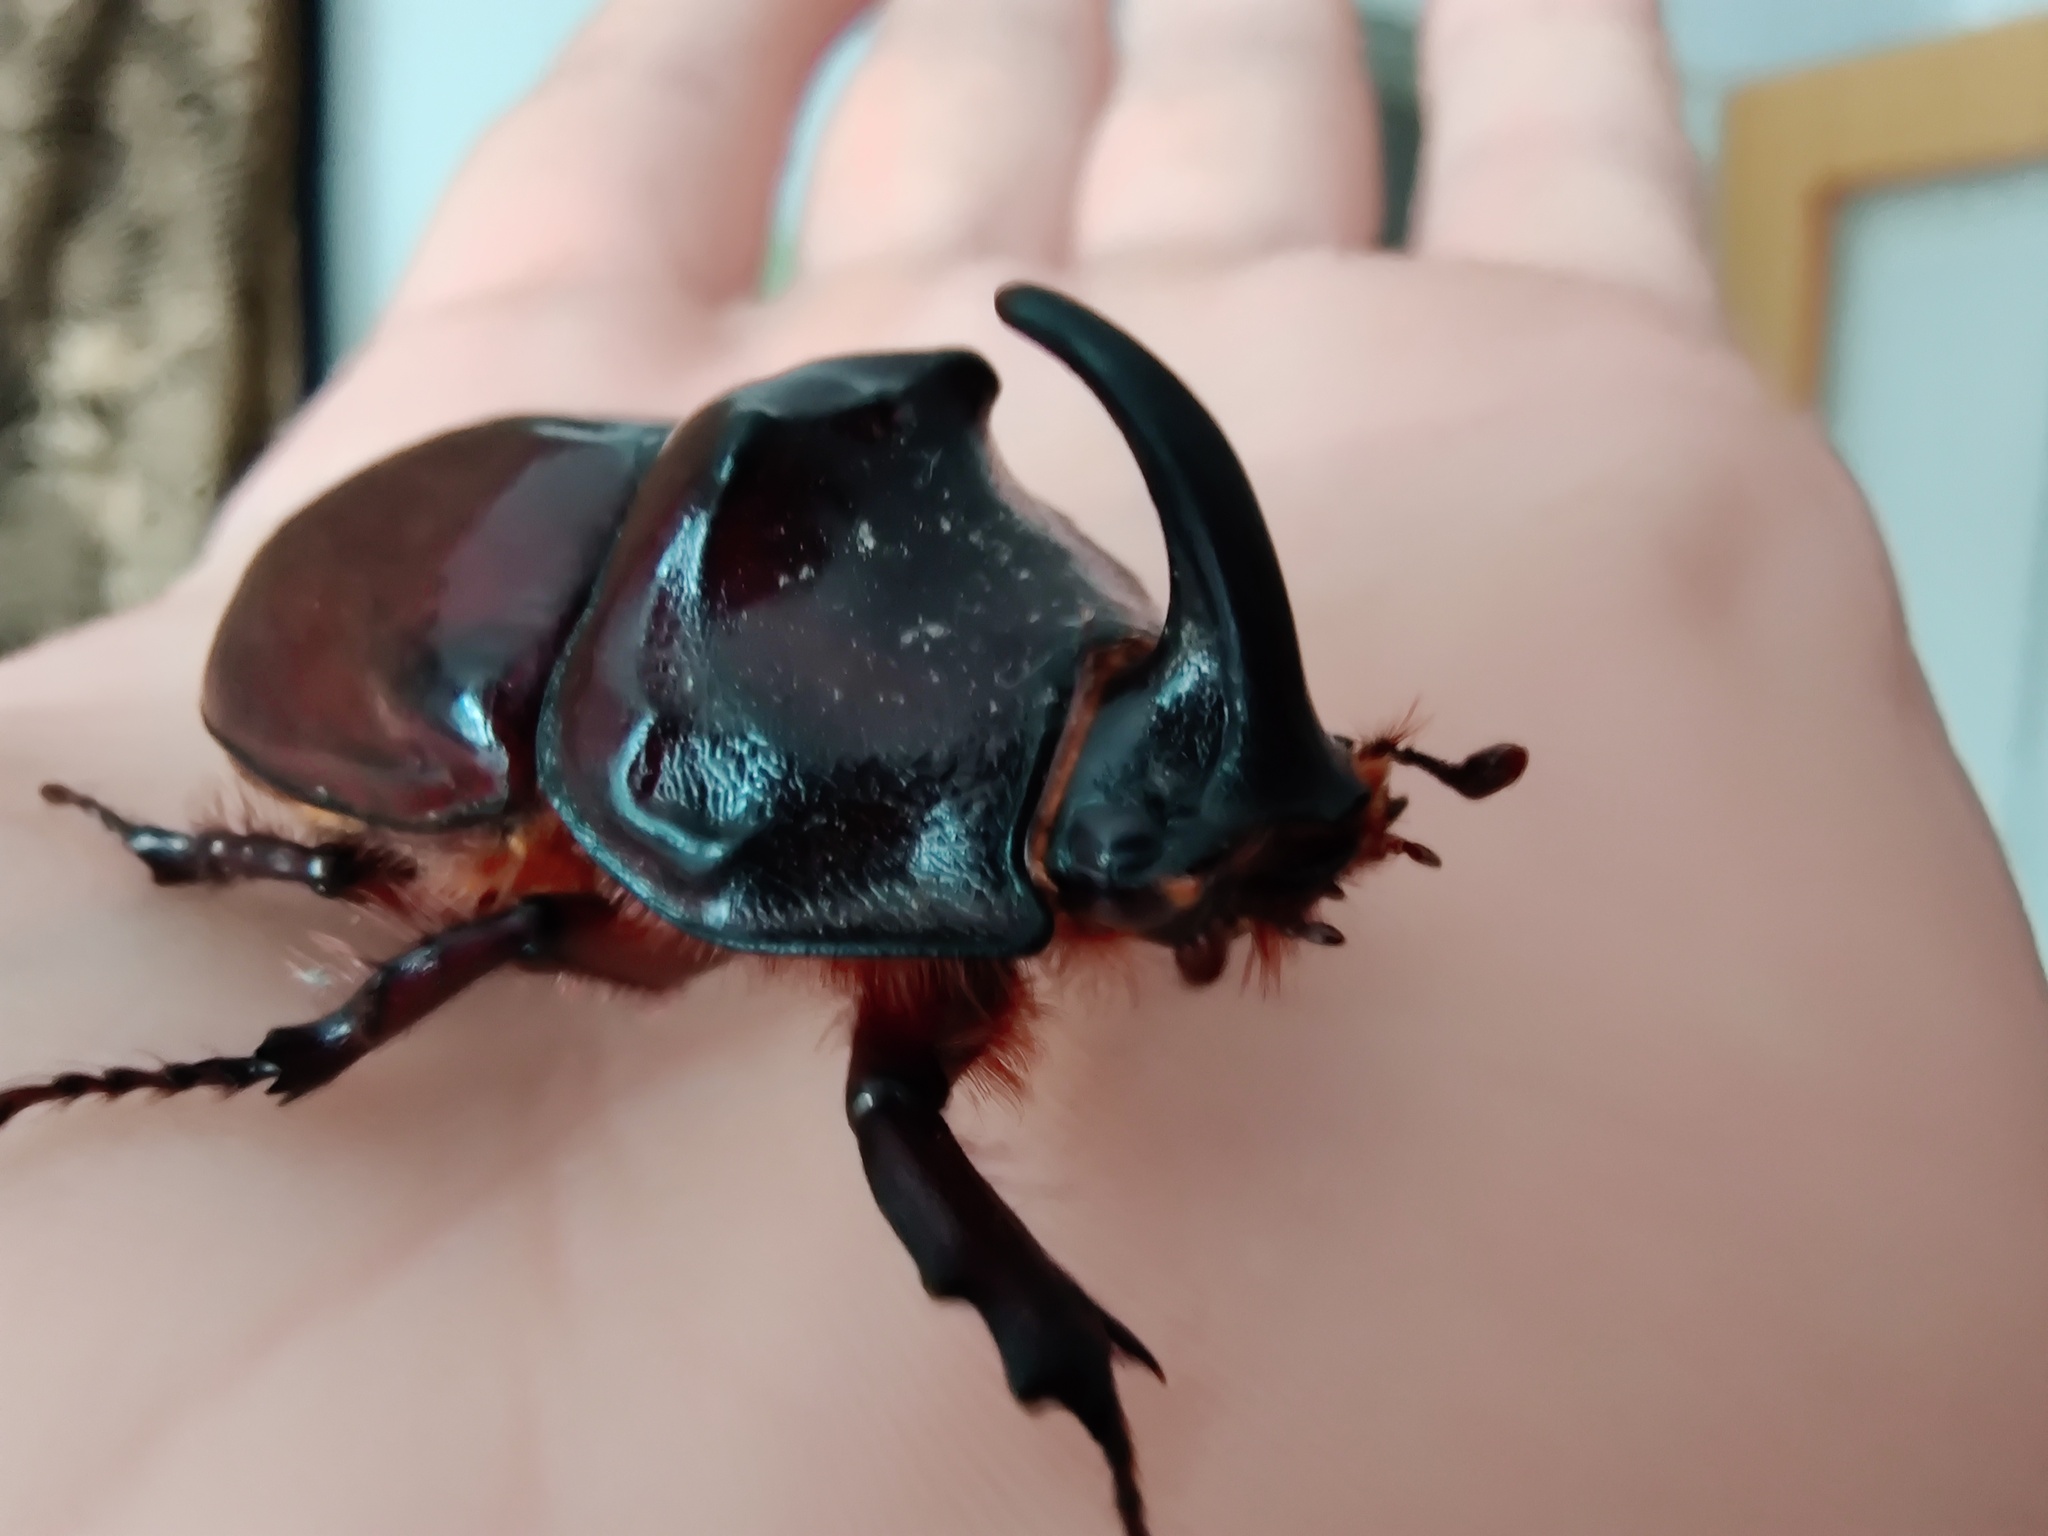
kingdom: Animalia
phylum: Arthropoda
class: Insecta
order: Coleoptera
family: Scarabaeidae
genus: Oryctes
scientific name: Oryctes nasicornis
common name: European rhinoceros beetle
